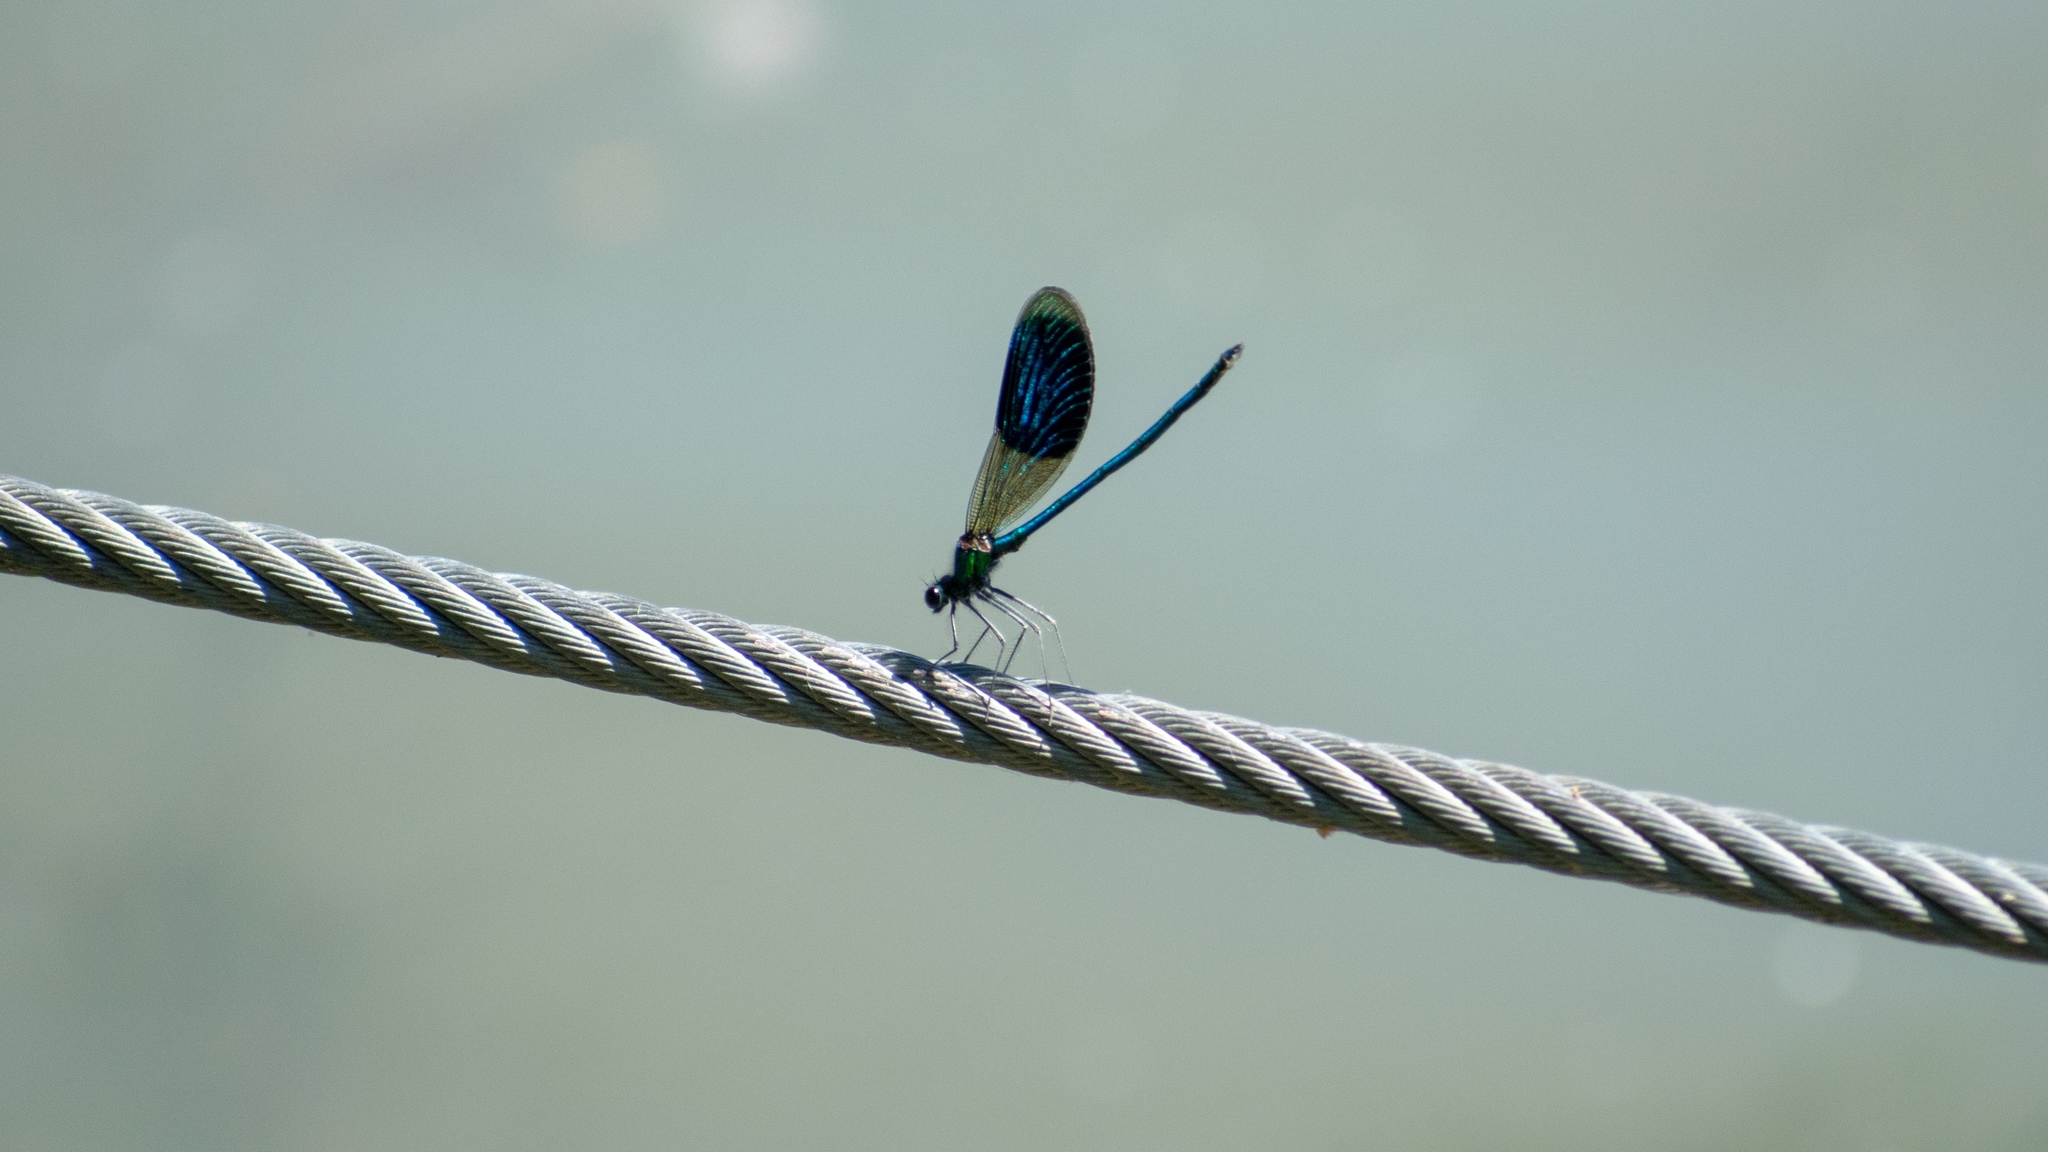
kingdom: Animalia
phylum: Arthropoda
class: Insecta
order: Odonata
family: Calopterygidae
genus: Calopteryx
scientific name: Calopteryx splendens
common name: Banded demoiselle
